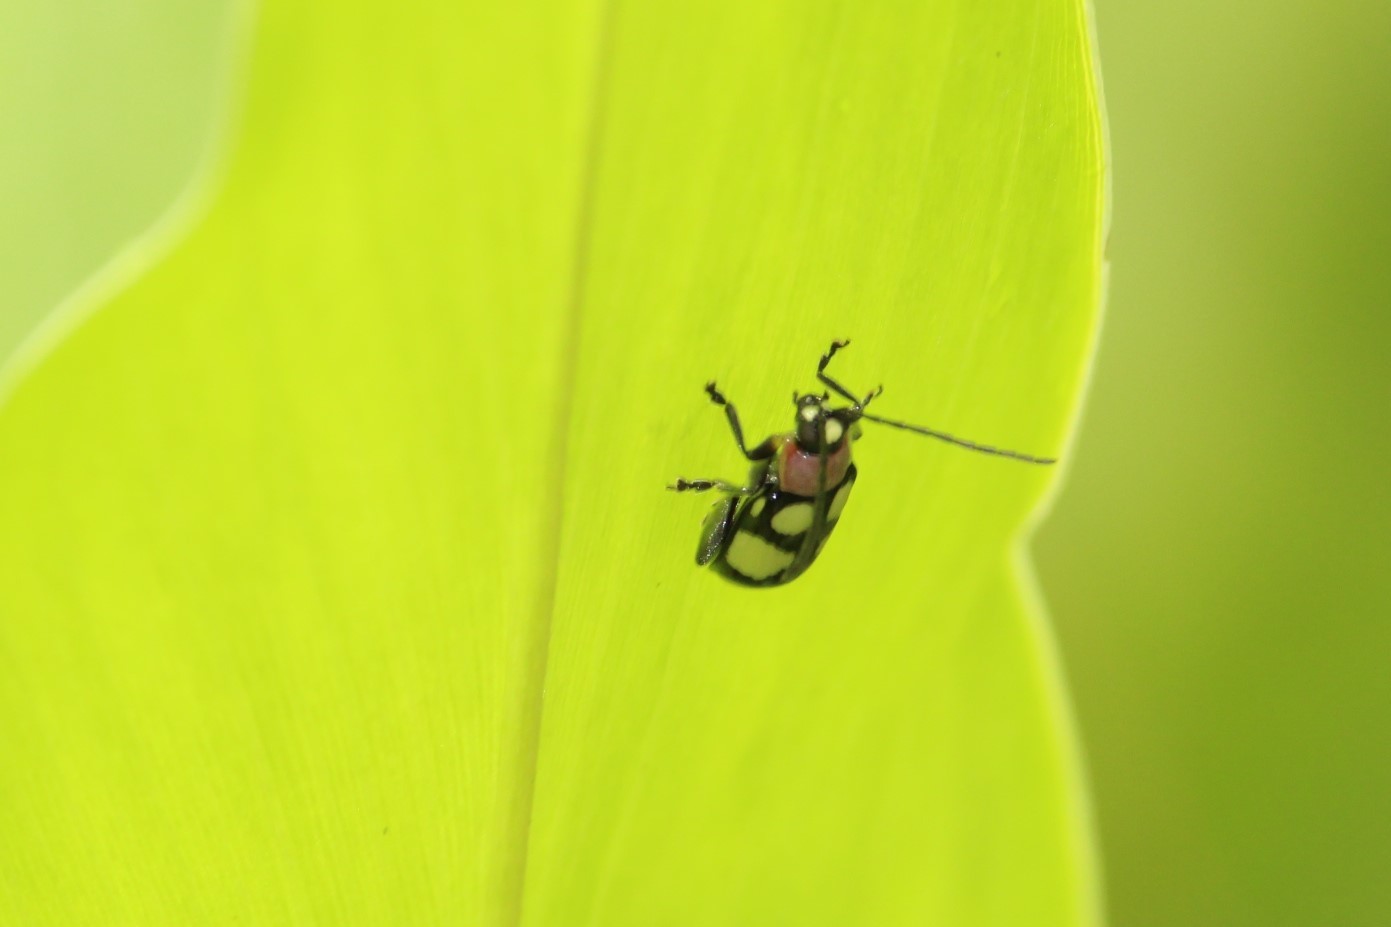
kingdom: Animalia
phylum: Arthropoda
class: Insecta
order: Coleoptera
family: Chrysomelidae
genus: Omophoita
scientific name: Omophoita
